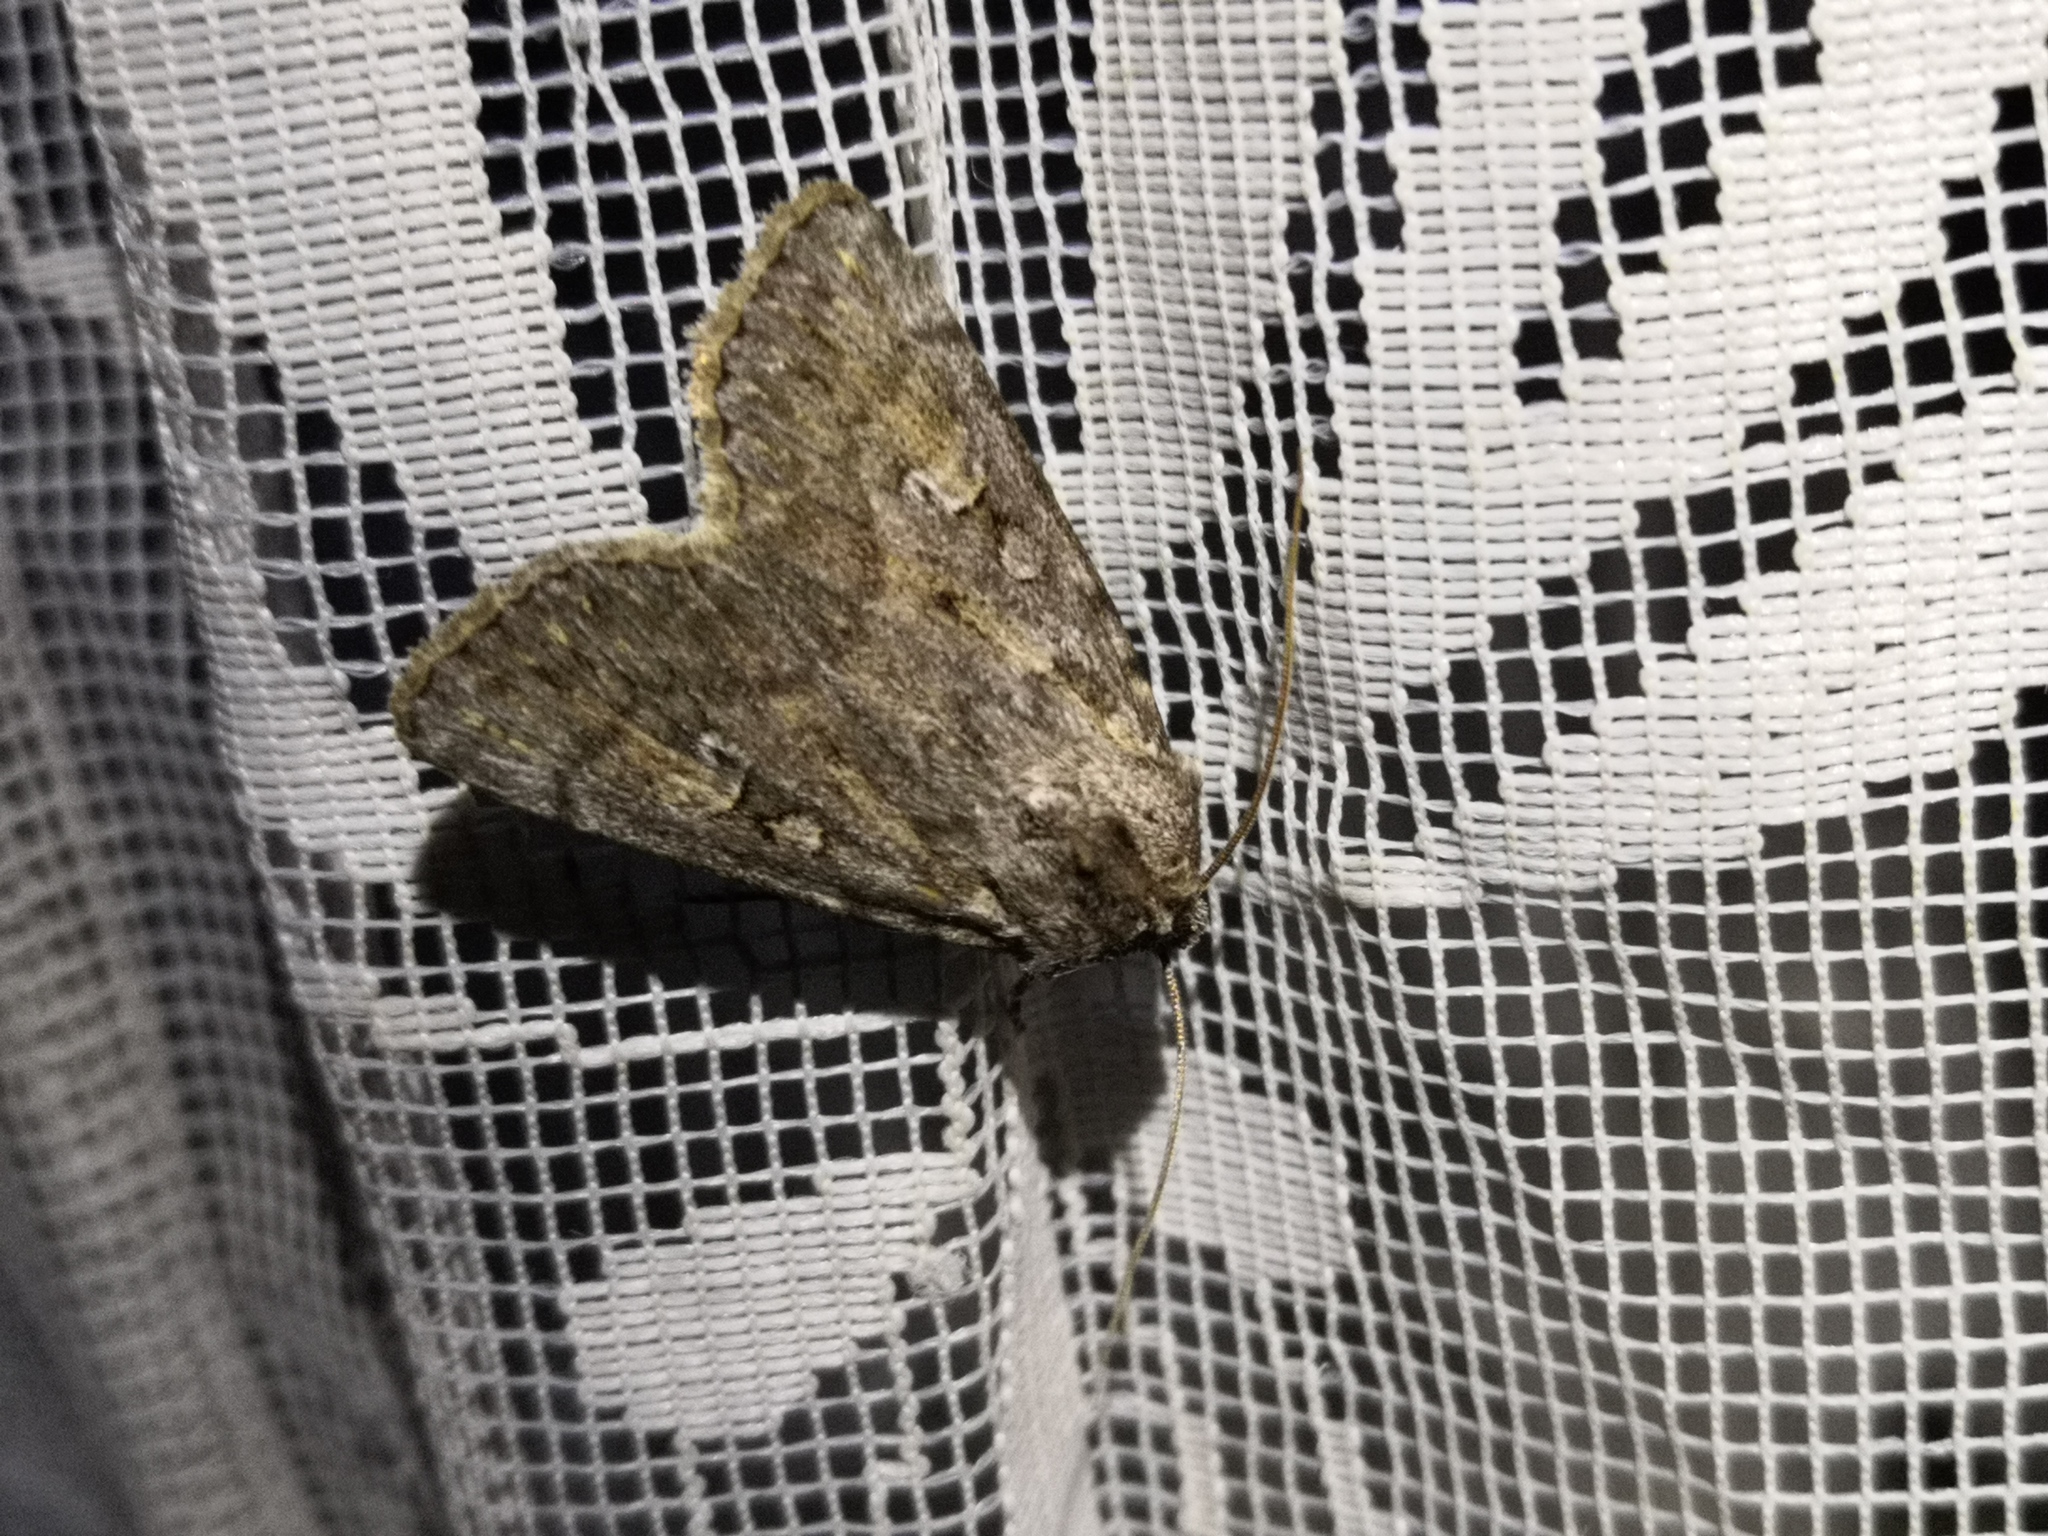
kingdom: Animalia
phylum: Arthropoda
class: Insecta
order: Lepidoptera
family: Noctuidae
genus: Yigoga
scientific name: Yigoga forcipula
